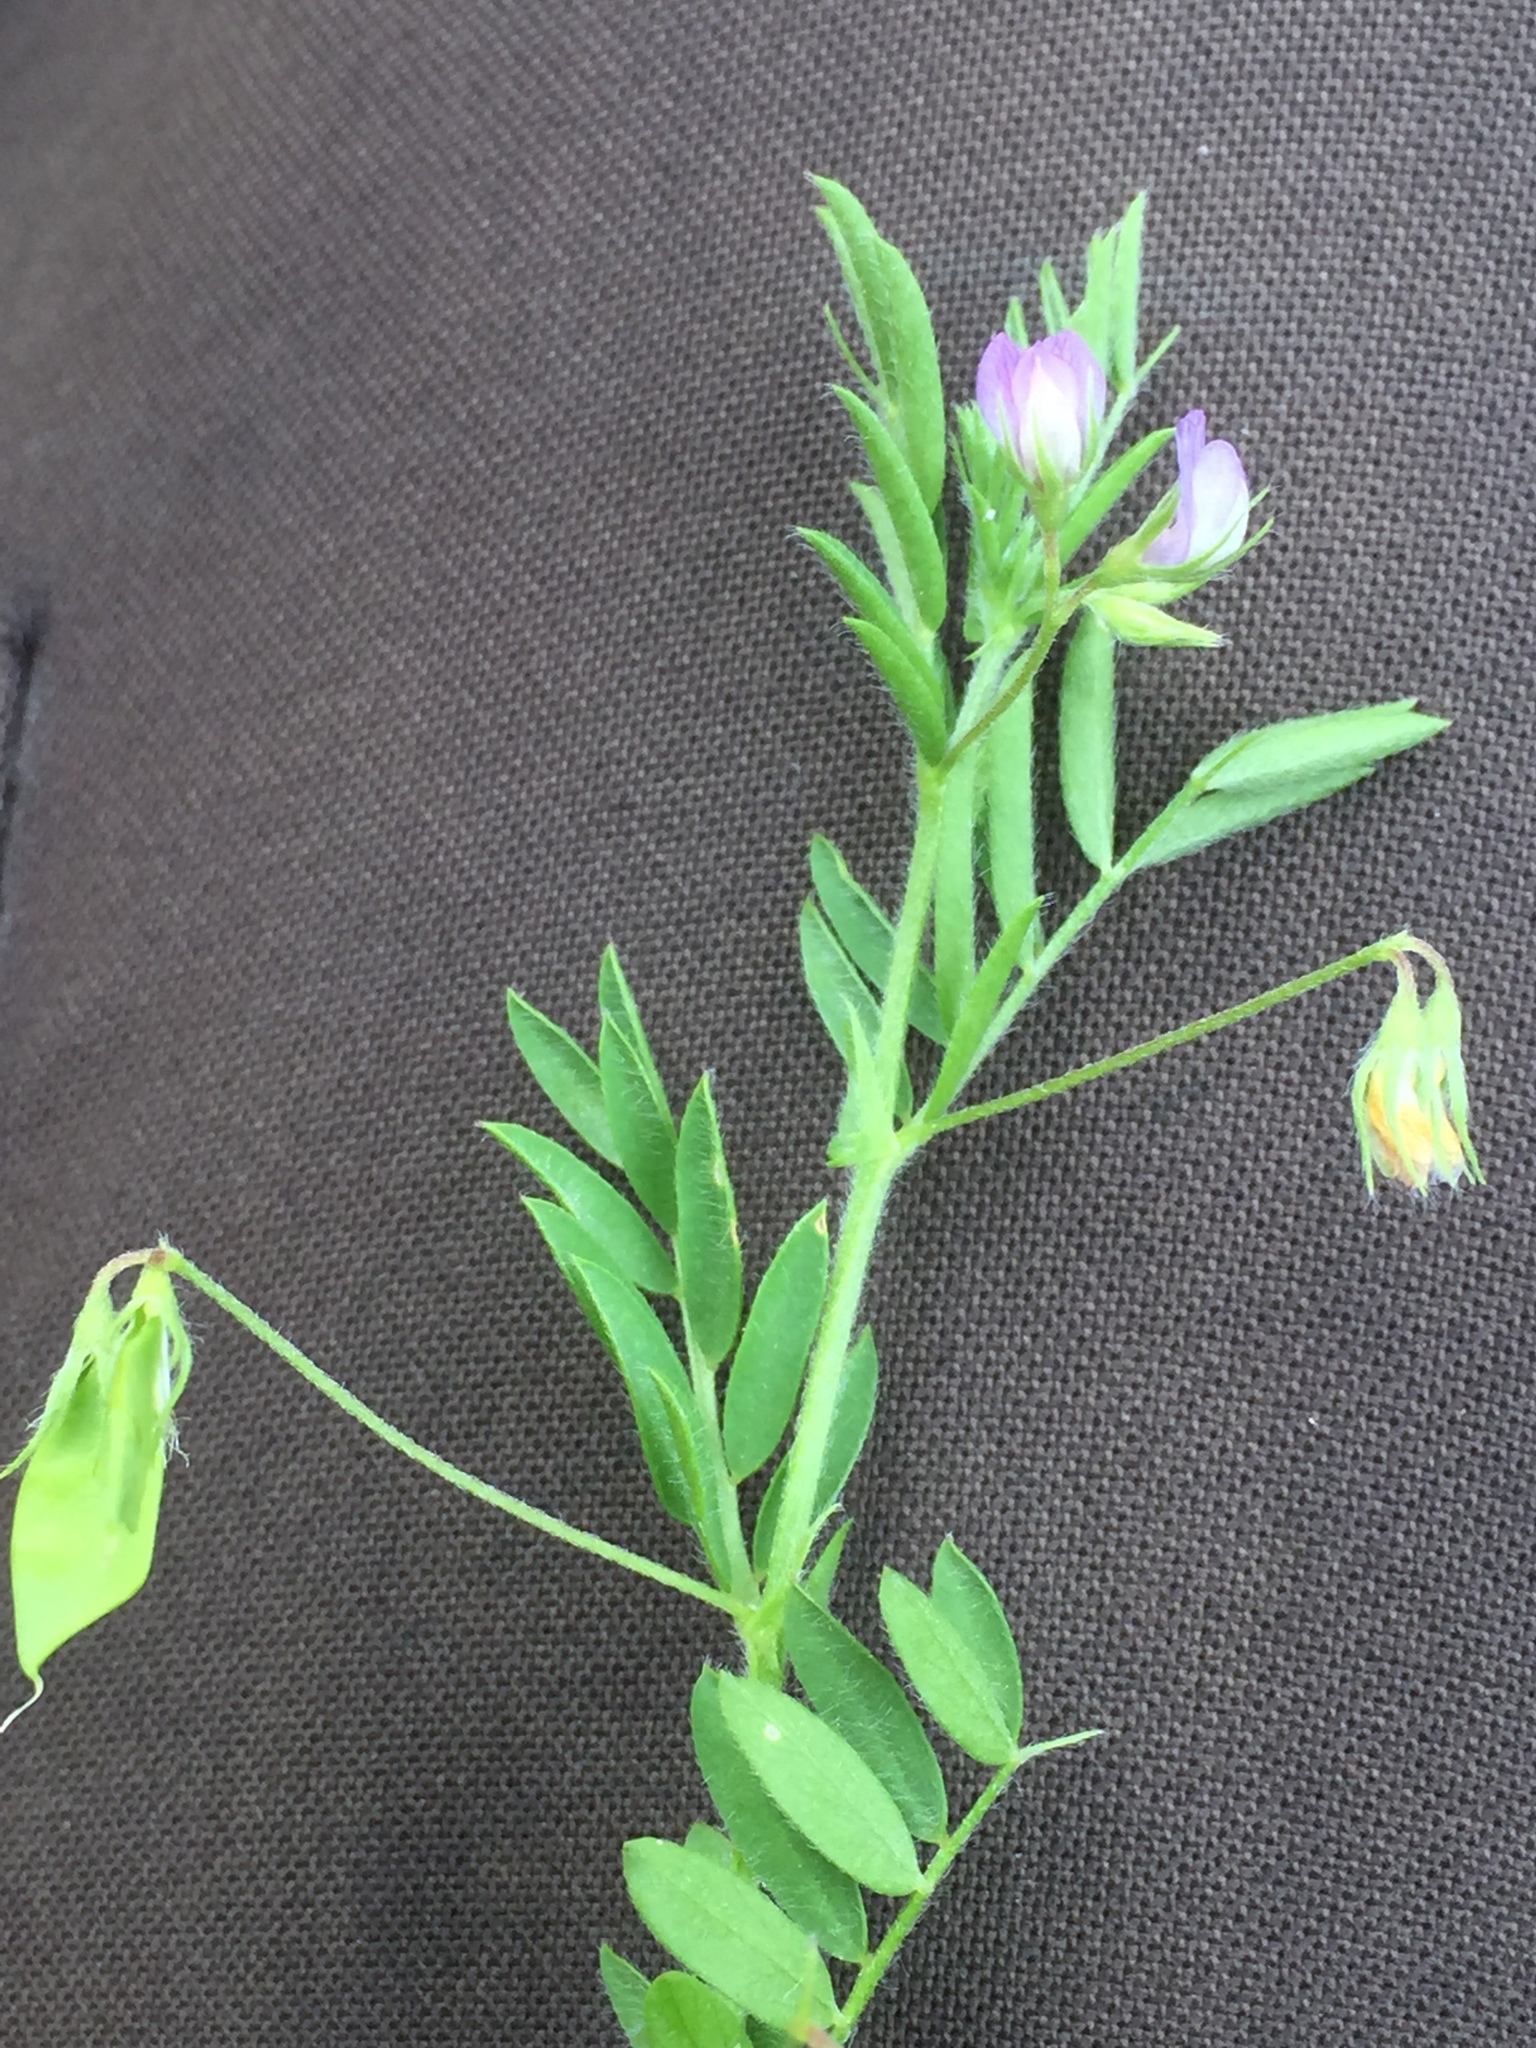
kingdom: Plantae
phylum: Tracheophyta
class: Magnoliopsida
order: Fabales
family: Fabaceae
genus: Vicia
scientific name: Vicia tetrasperma
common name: Smooth tare
